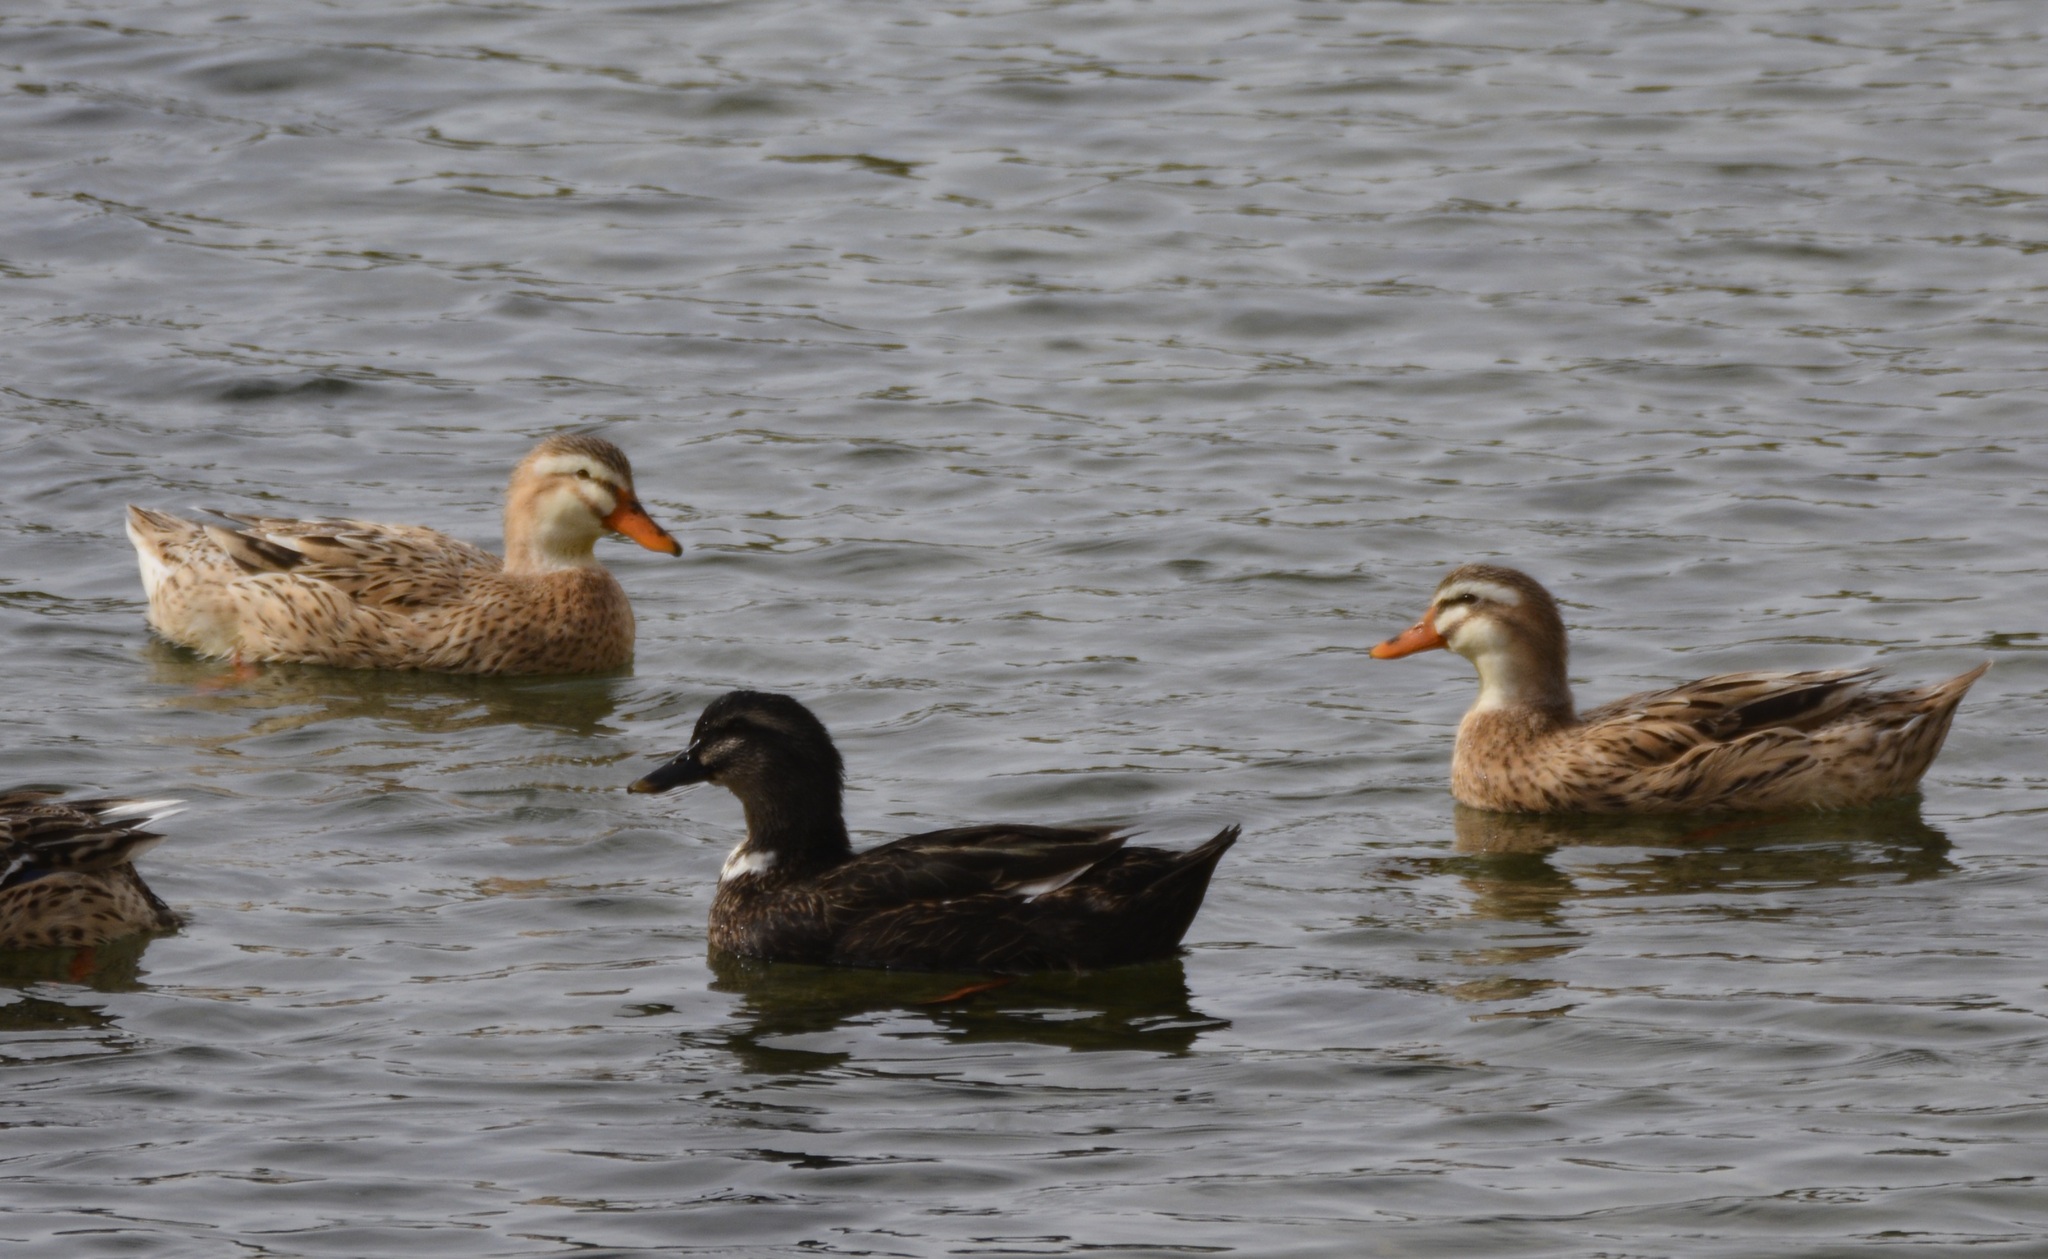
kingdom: Animalia
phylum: Chordata
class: Aves
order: Anseriformes
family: Anatidae
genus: Anas
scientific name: Anas platyrhynchos
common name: Mallard
